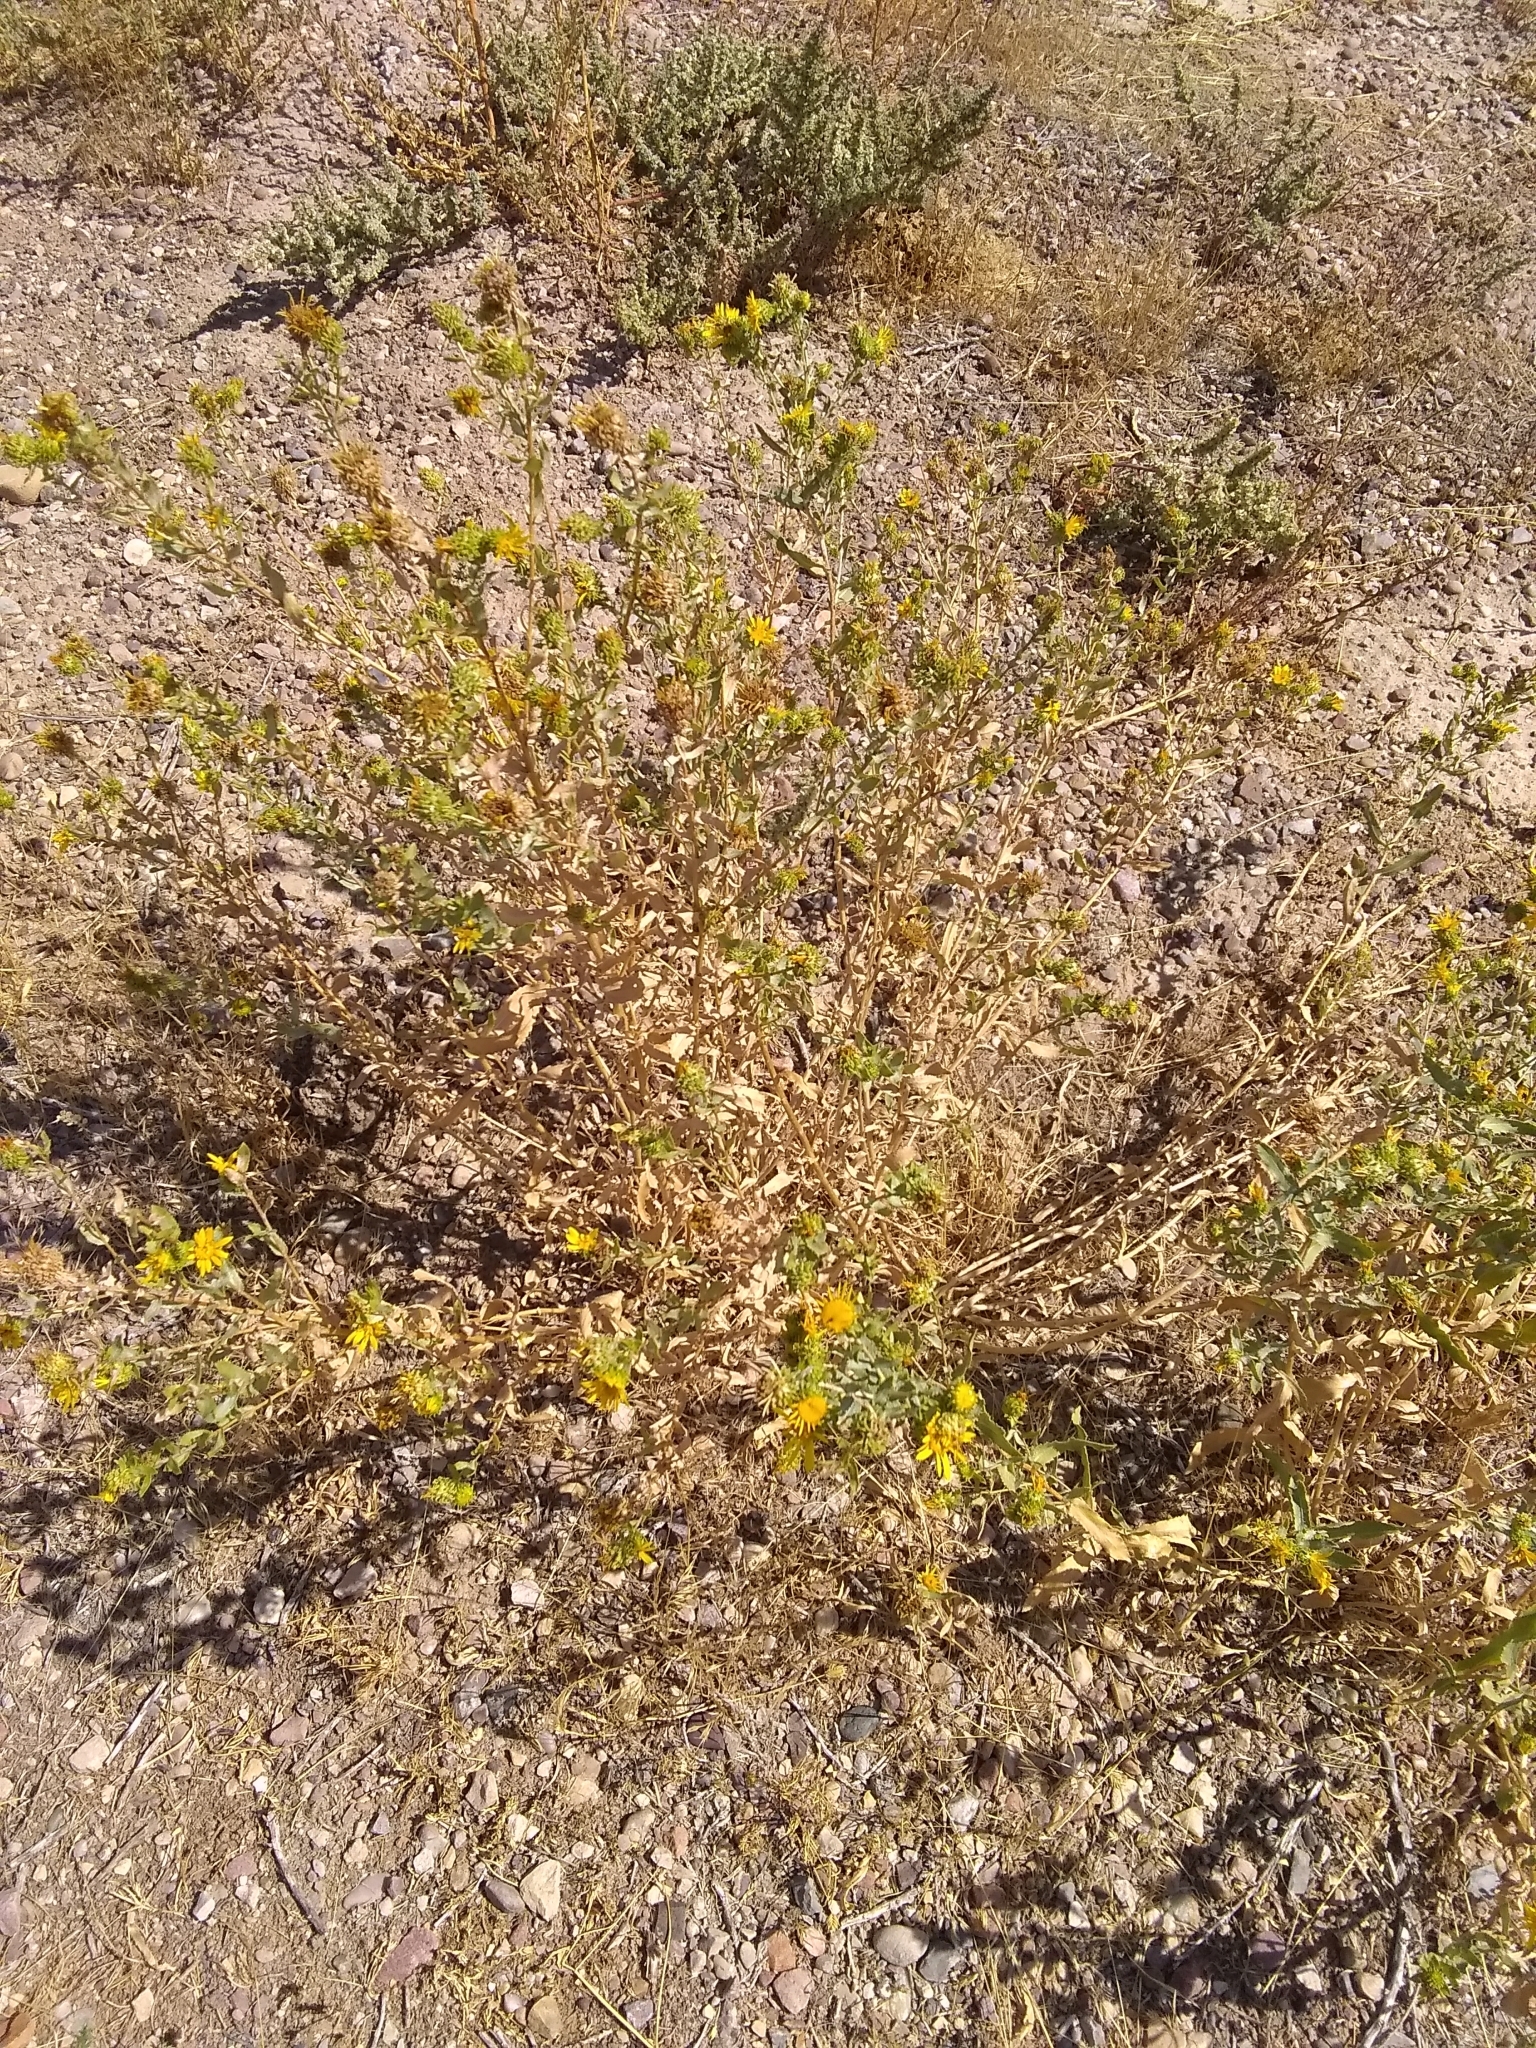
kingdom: Plantae
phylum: Tracheophyta
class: Magnoliopsida
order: Asterales
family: Asteraceae
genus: Grindelia
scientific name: Grindelia squarrosa
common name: Curly-cup gumweed
